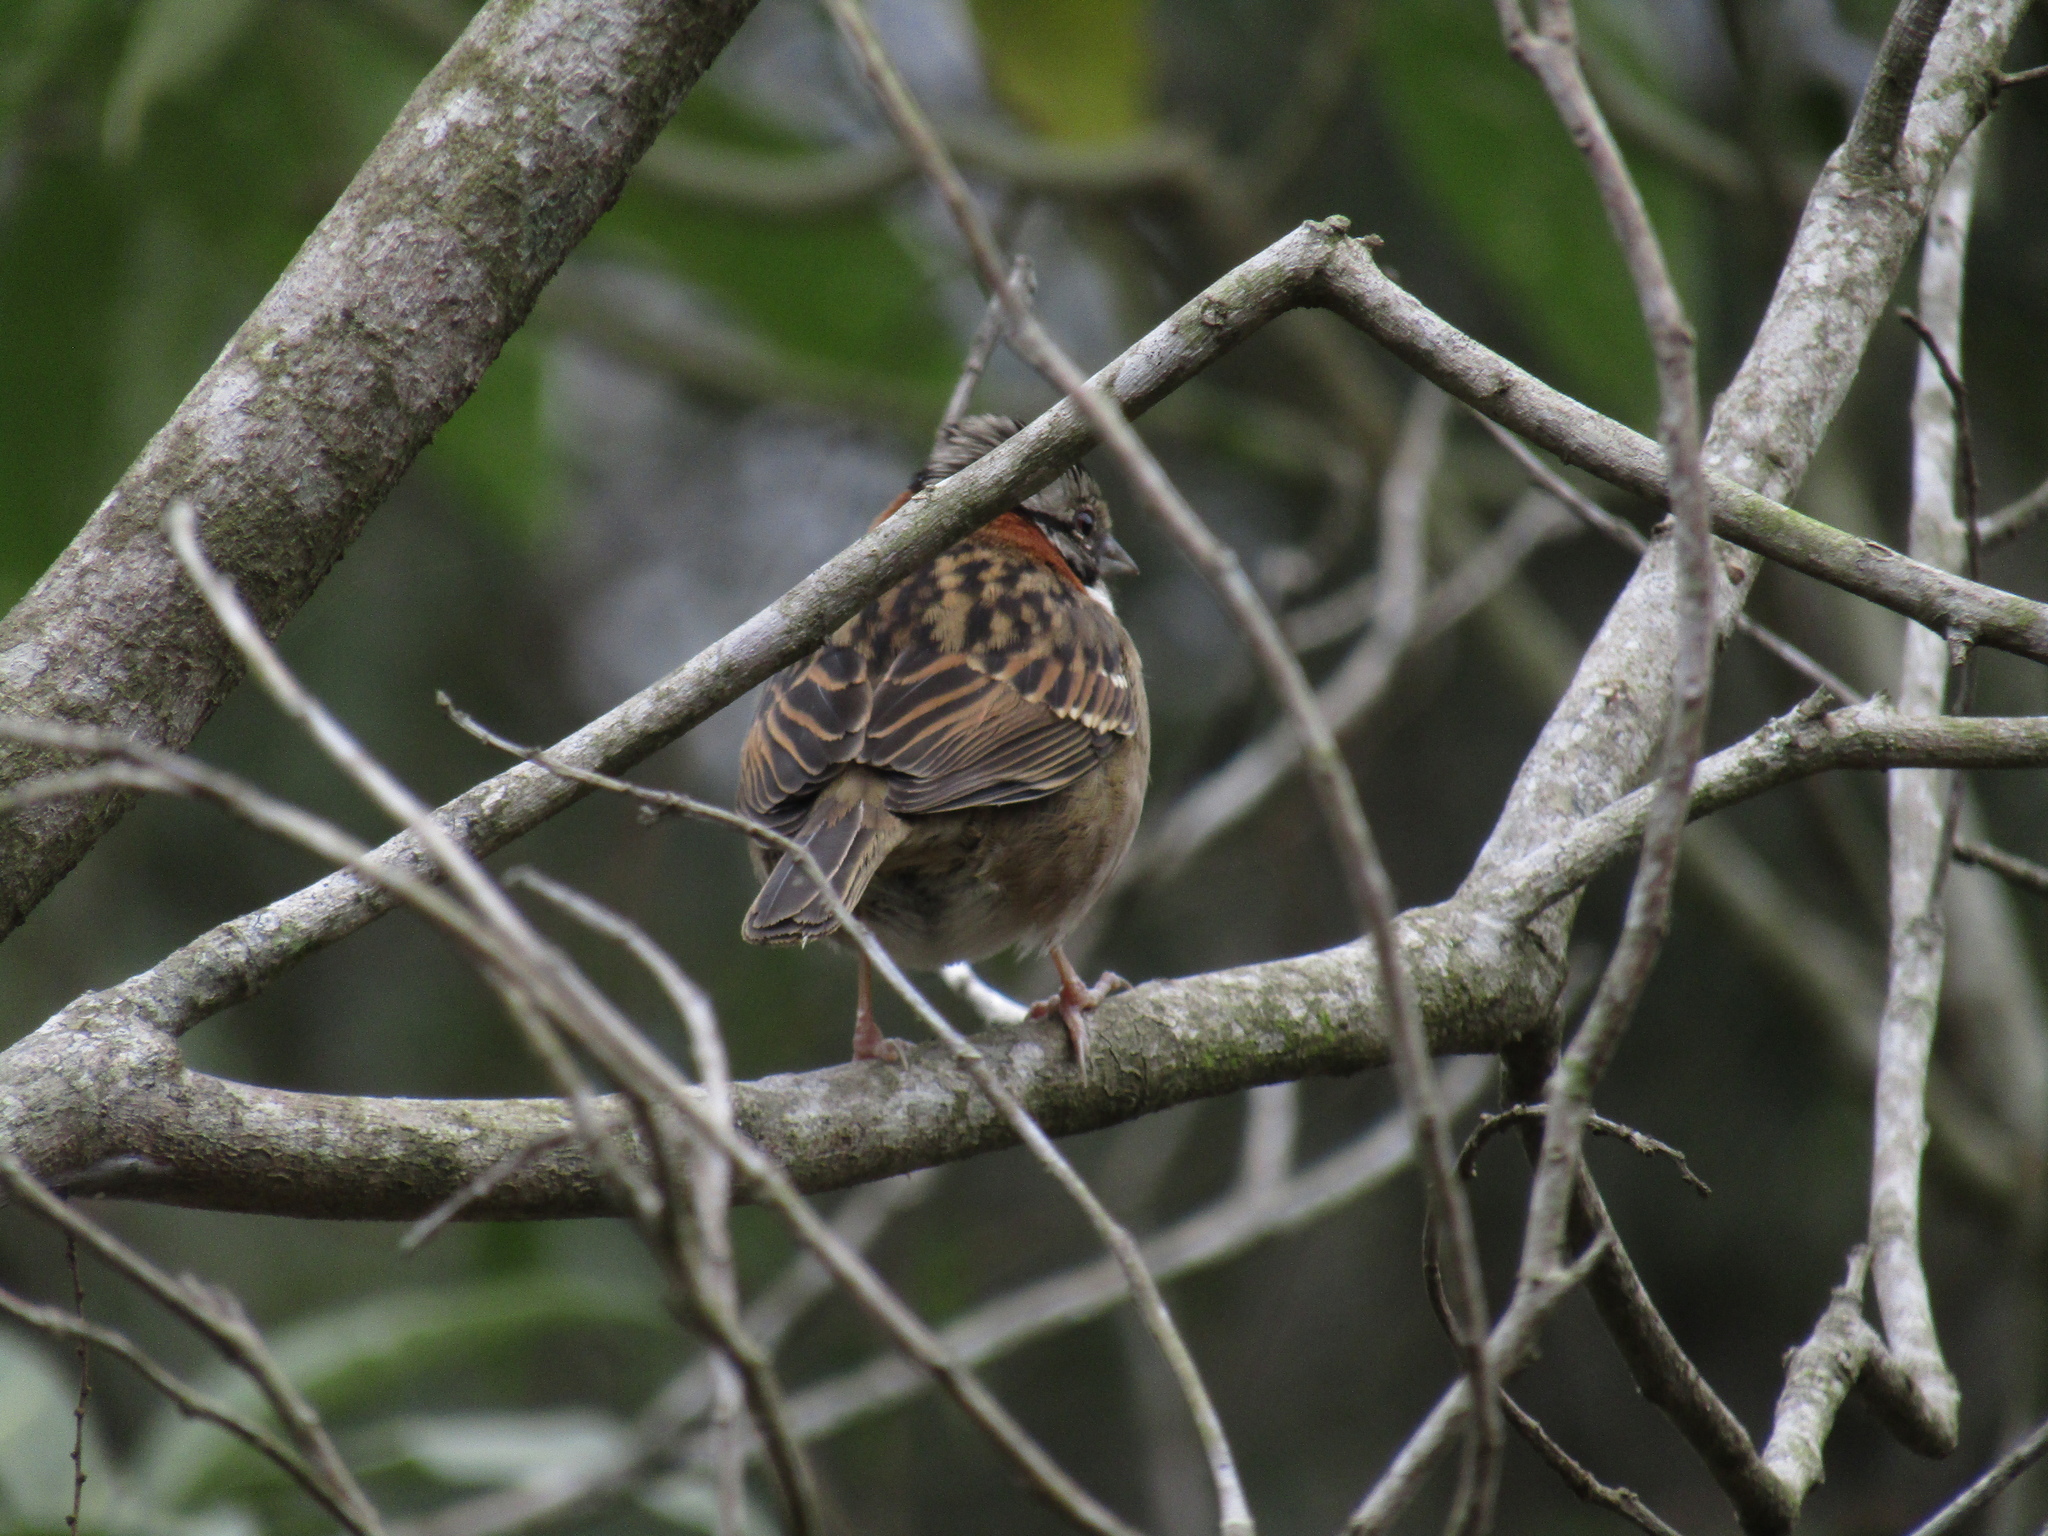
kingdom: Animalia
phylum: Chordata
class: Aves
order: Passeriformes
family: Passerellidae
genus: Zonotrichia
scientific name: Zonotrichia capensis
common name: Rufous-collared sparrow
